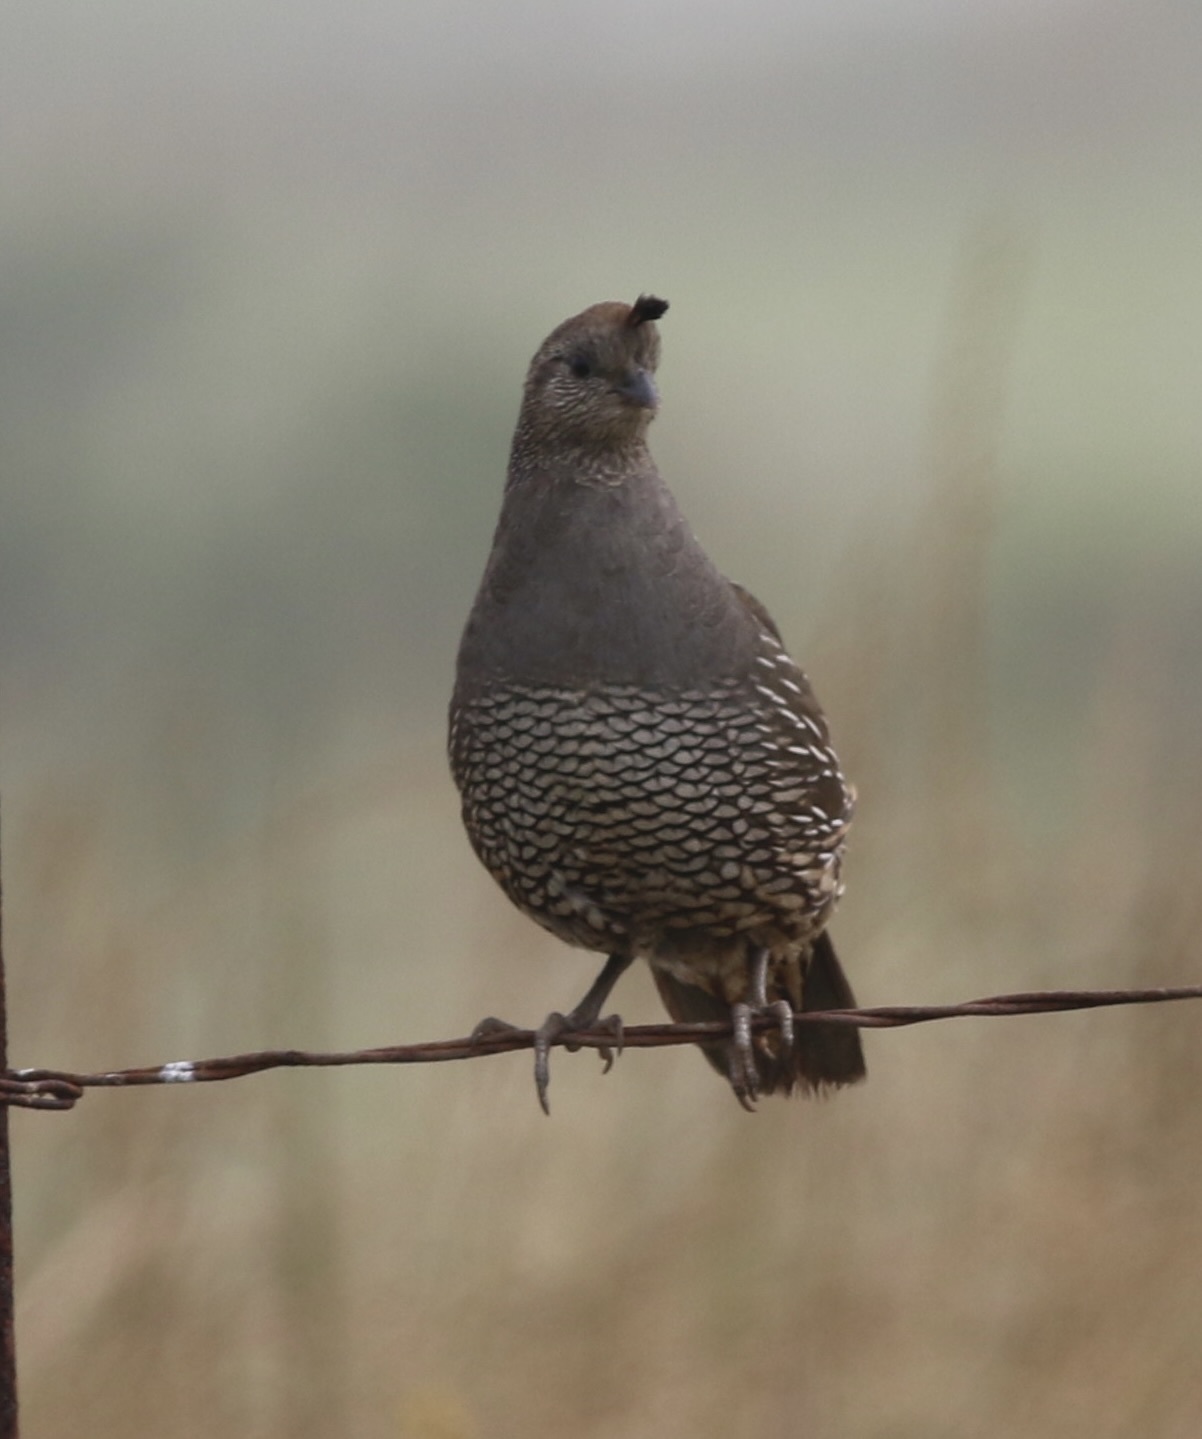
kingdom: Animalia
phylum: Chordata
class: Aves
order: Galliformes
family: Odontophoridae
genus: Callipepla
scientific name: Callipepla californica
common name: California quail
